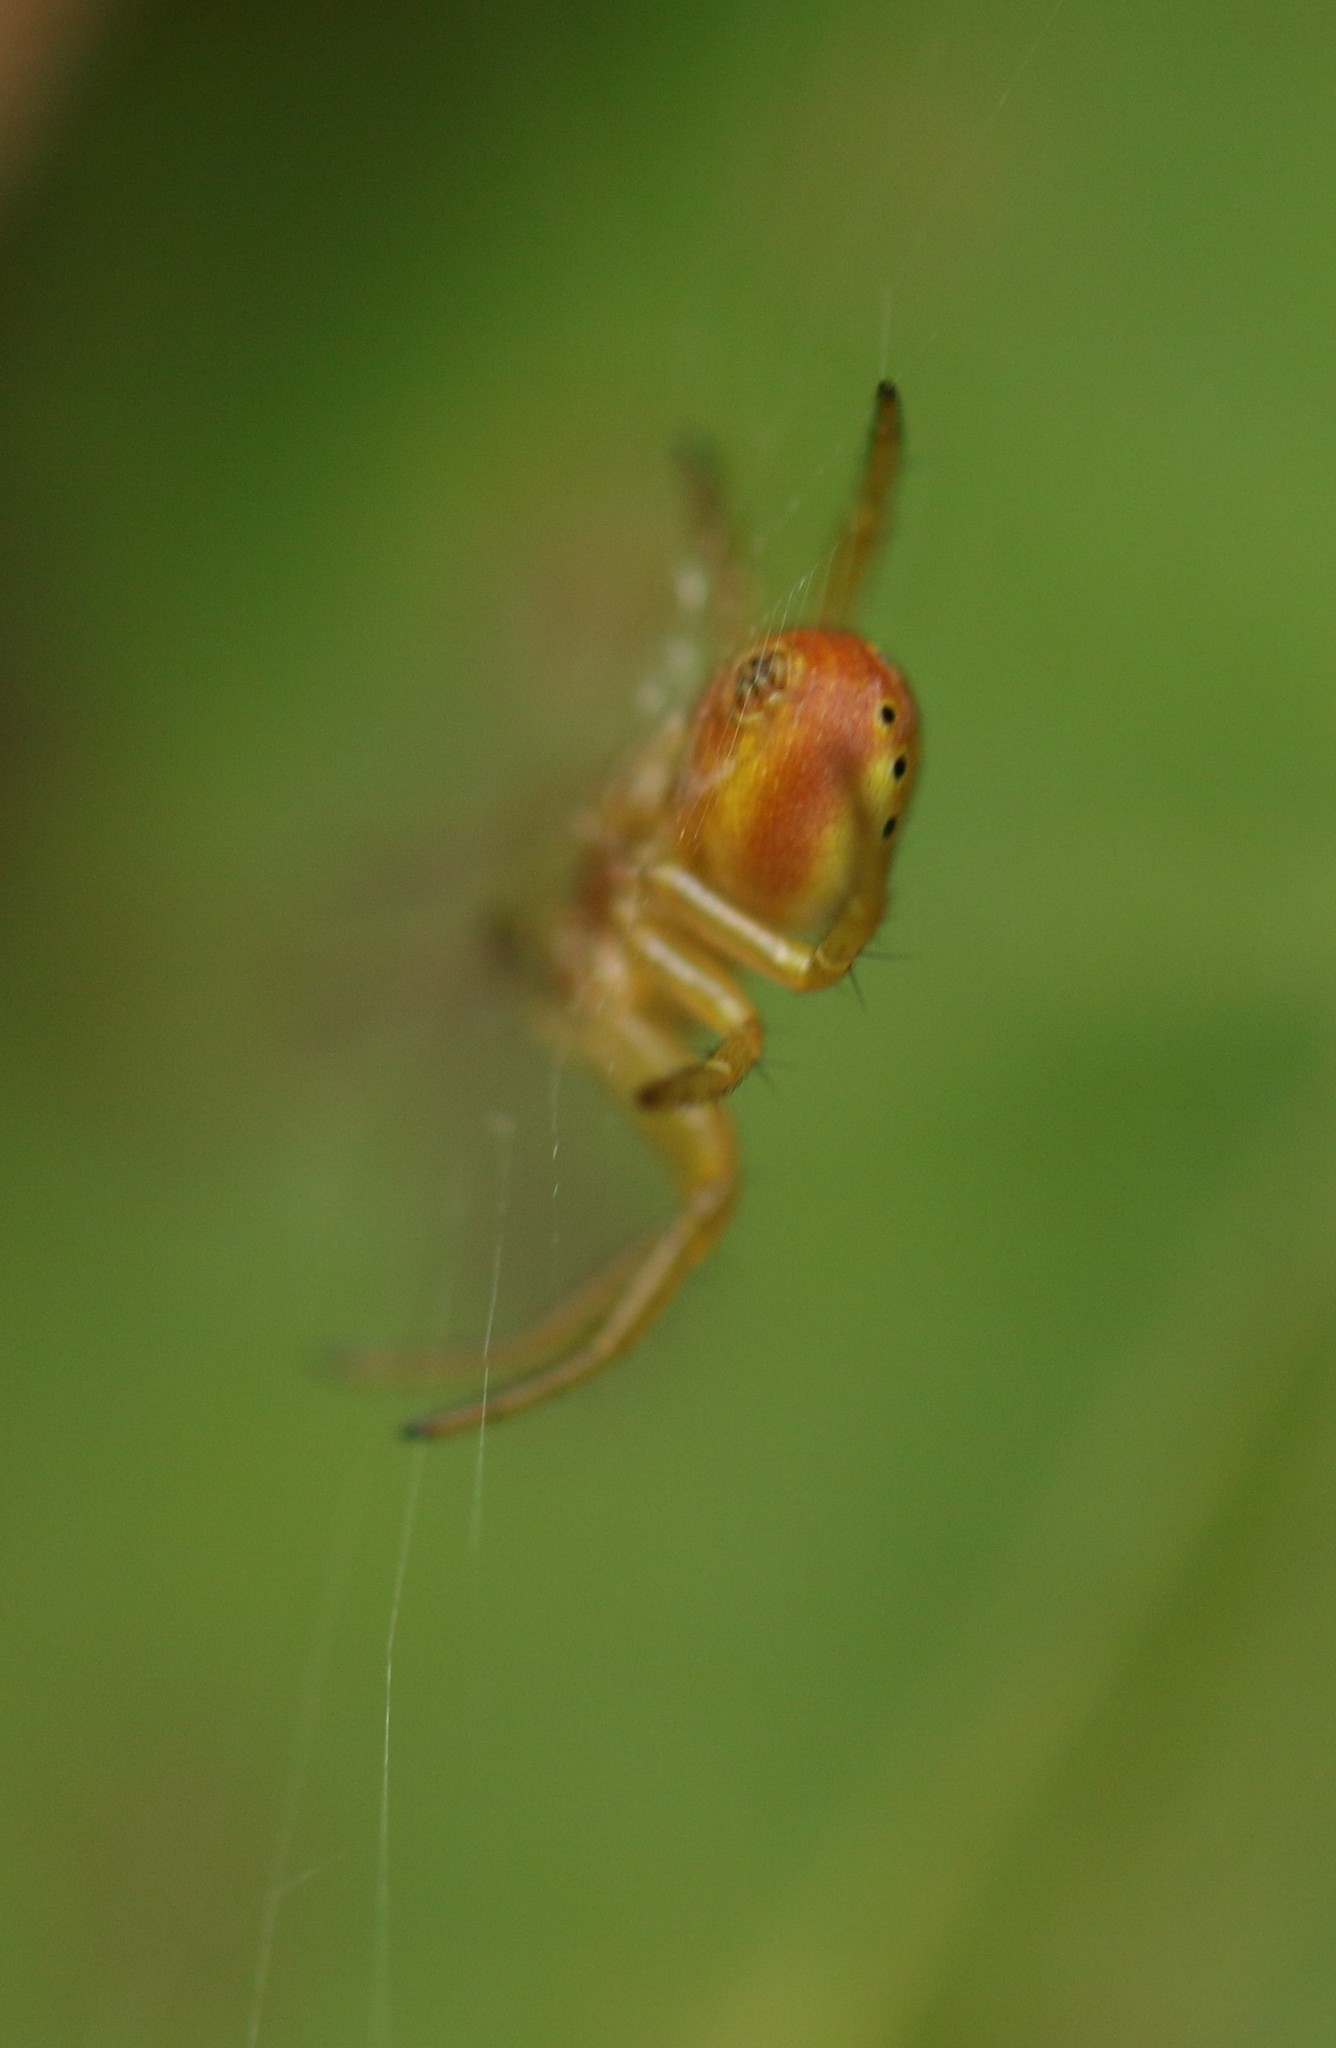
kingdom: Animalia
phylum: Arthropoda
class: Arachnida
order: Araneae
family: Araneidae
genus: Araniella
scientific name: Araniella displicata
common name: Sixspotted orb weaver
